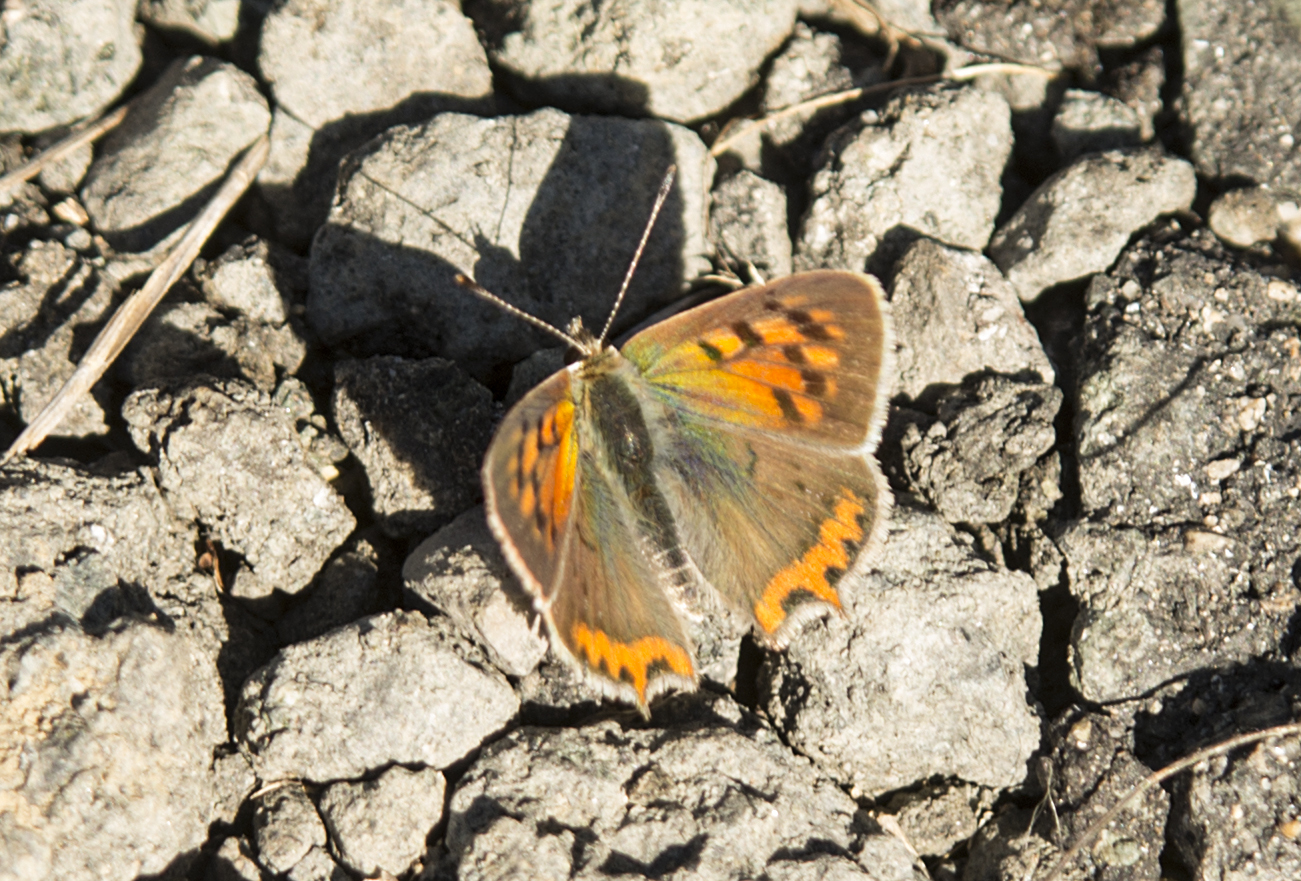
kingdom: Animalia
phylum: Arthropoda
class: Insecta
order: Lepidoptera
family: Lycaenidae
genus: Lycaena
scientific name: Lycaena phlaeas
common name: Small copper
